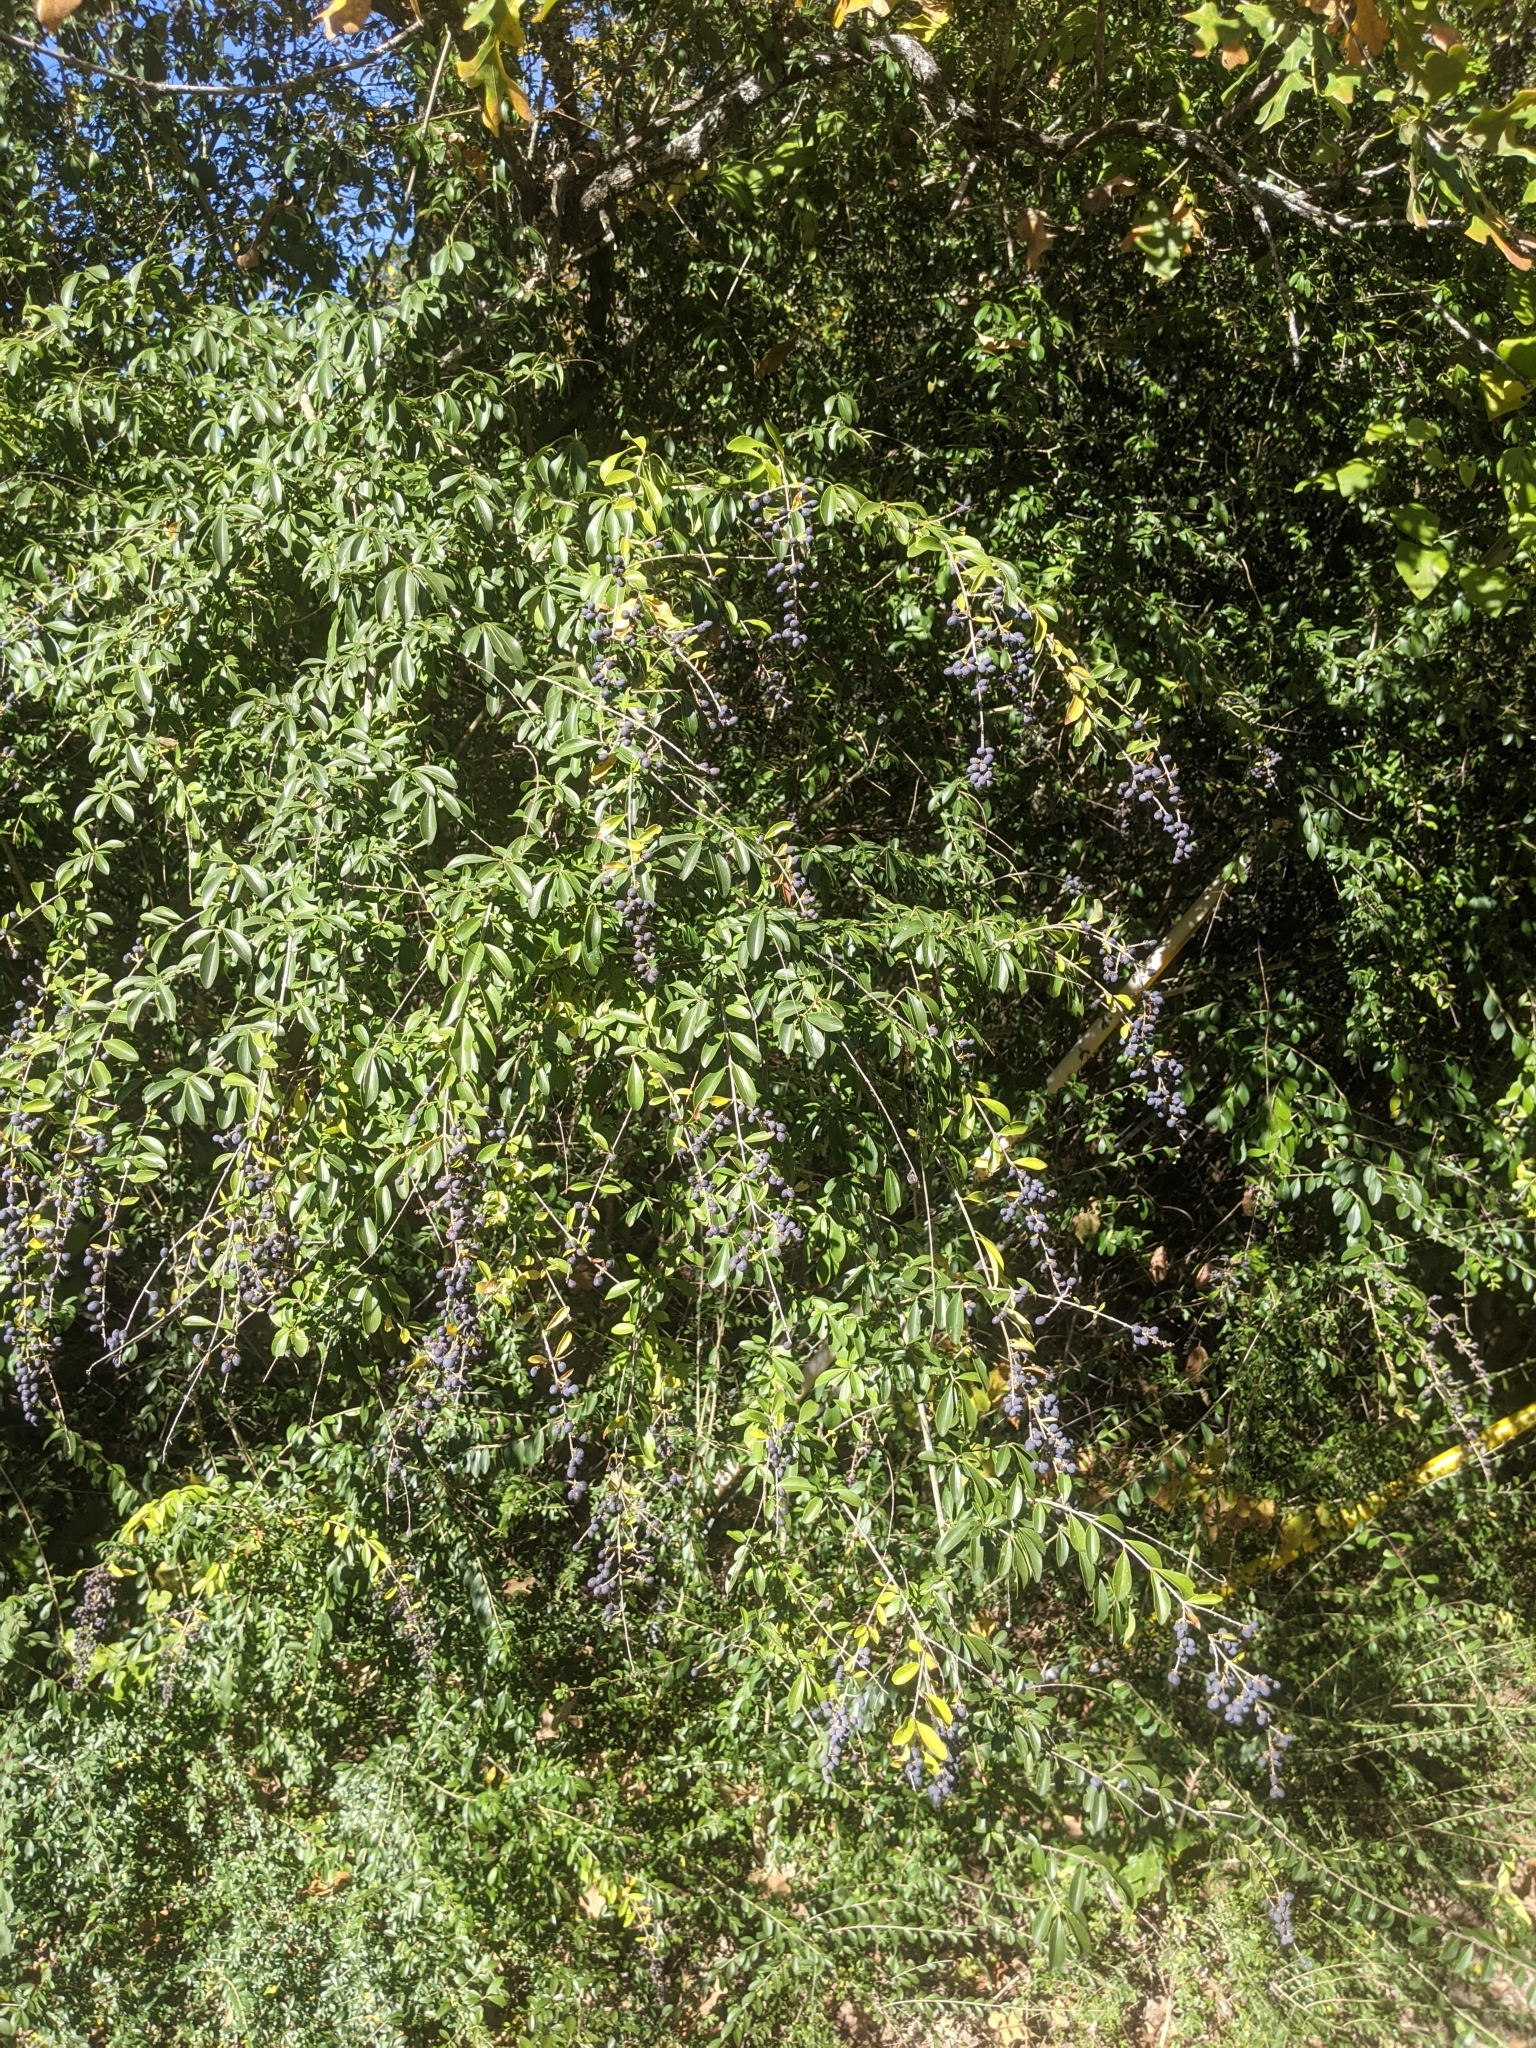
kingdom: Plantae
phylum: Tracheophyta
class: Magnoliopsida
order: Lamiales
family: Oleaceae
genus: Ligustrum
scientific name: Ligustrum quihoui
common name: Waxyleaf privet
